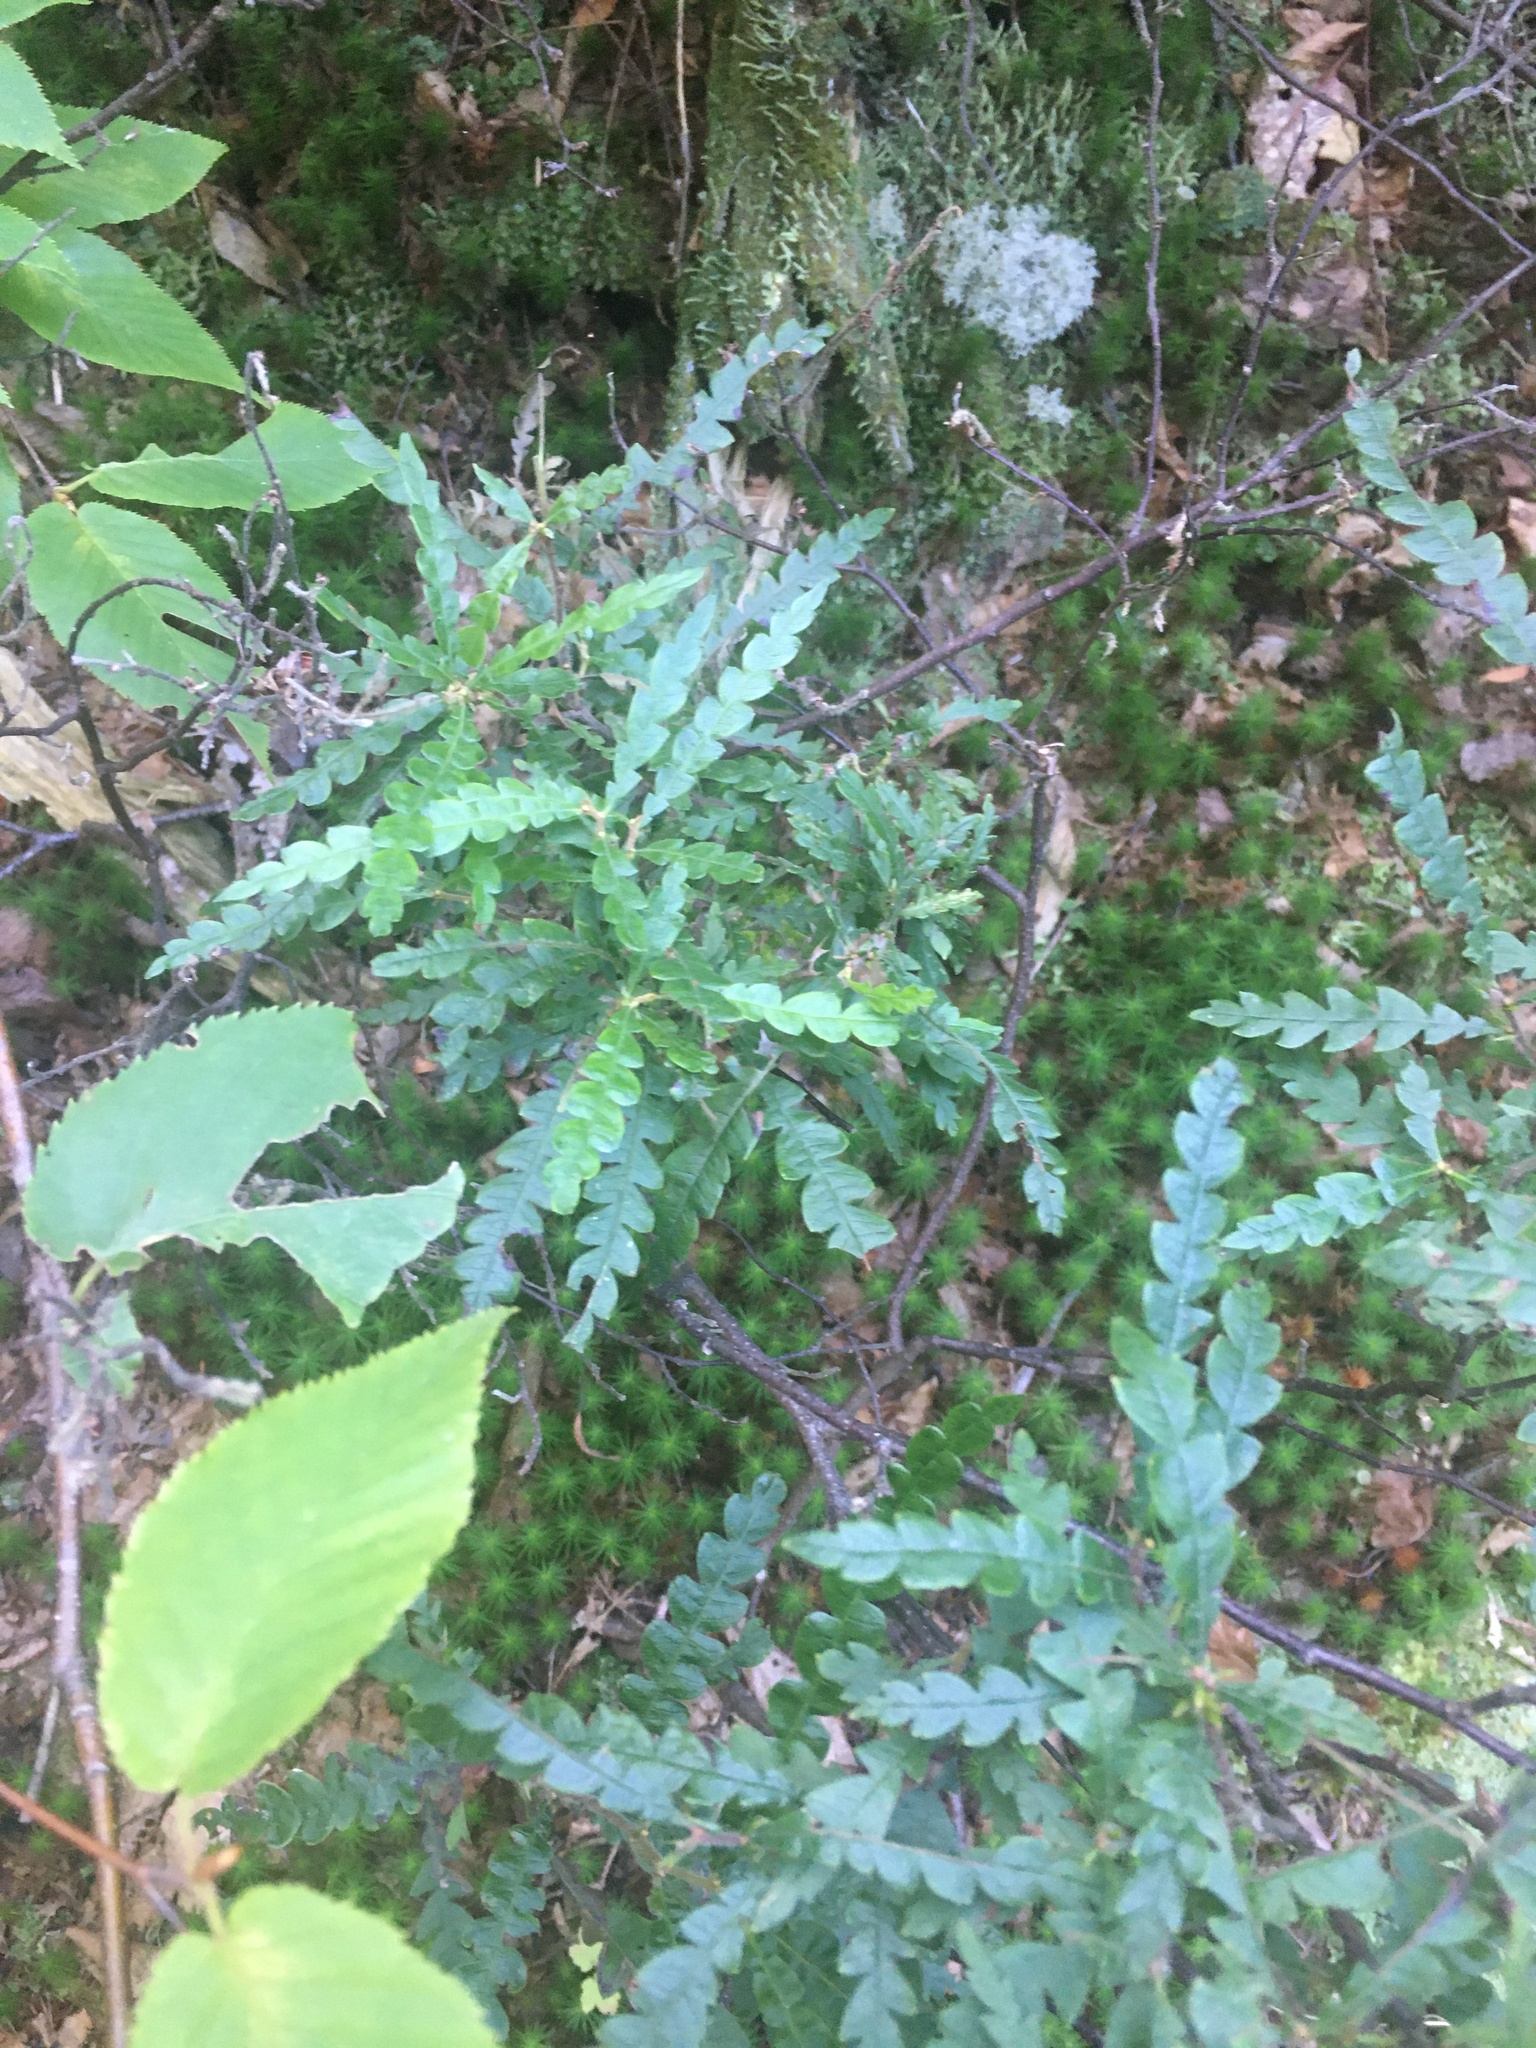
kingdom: Plantae
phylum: Tracheophyta
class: Magnoliopsida
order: Fagales
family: Myricaceae
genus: Comptonia
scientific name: Comptonia peregrina
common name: Sweet-fern
